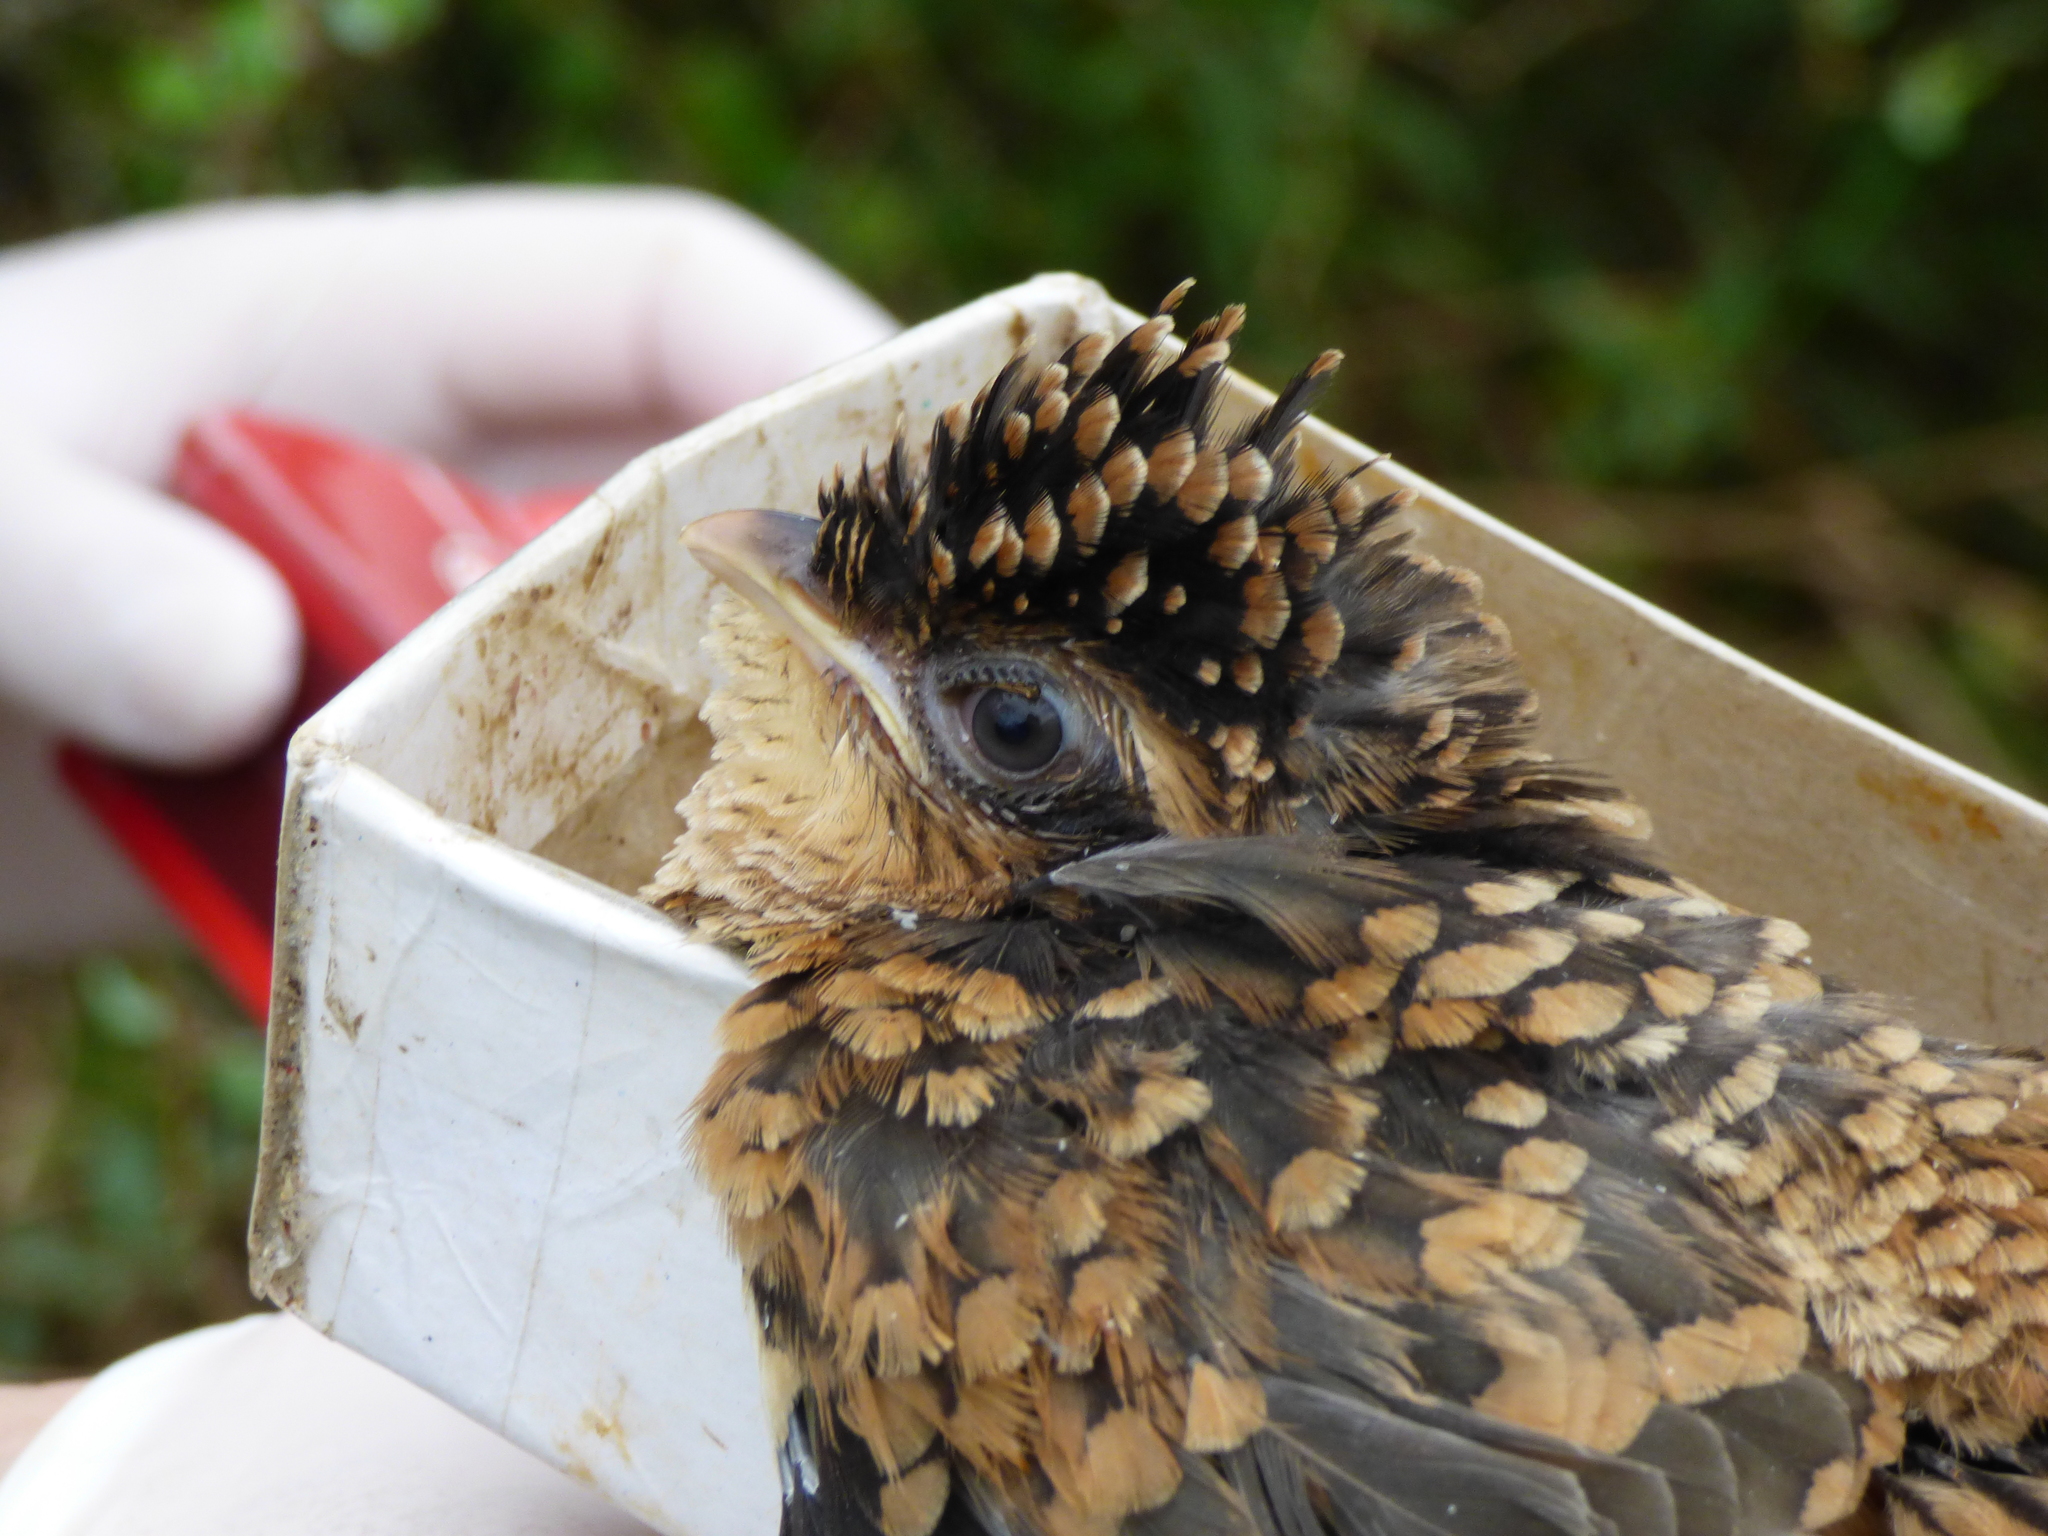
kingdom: Animalia
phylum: Chordata
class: Aves
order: Cuculiformes
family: Cuculidae
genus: Tapera
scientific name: Tapera naevia
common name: Striped cuckoo
